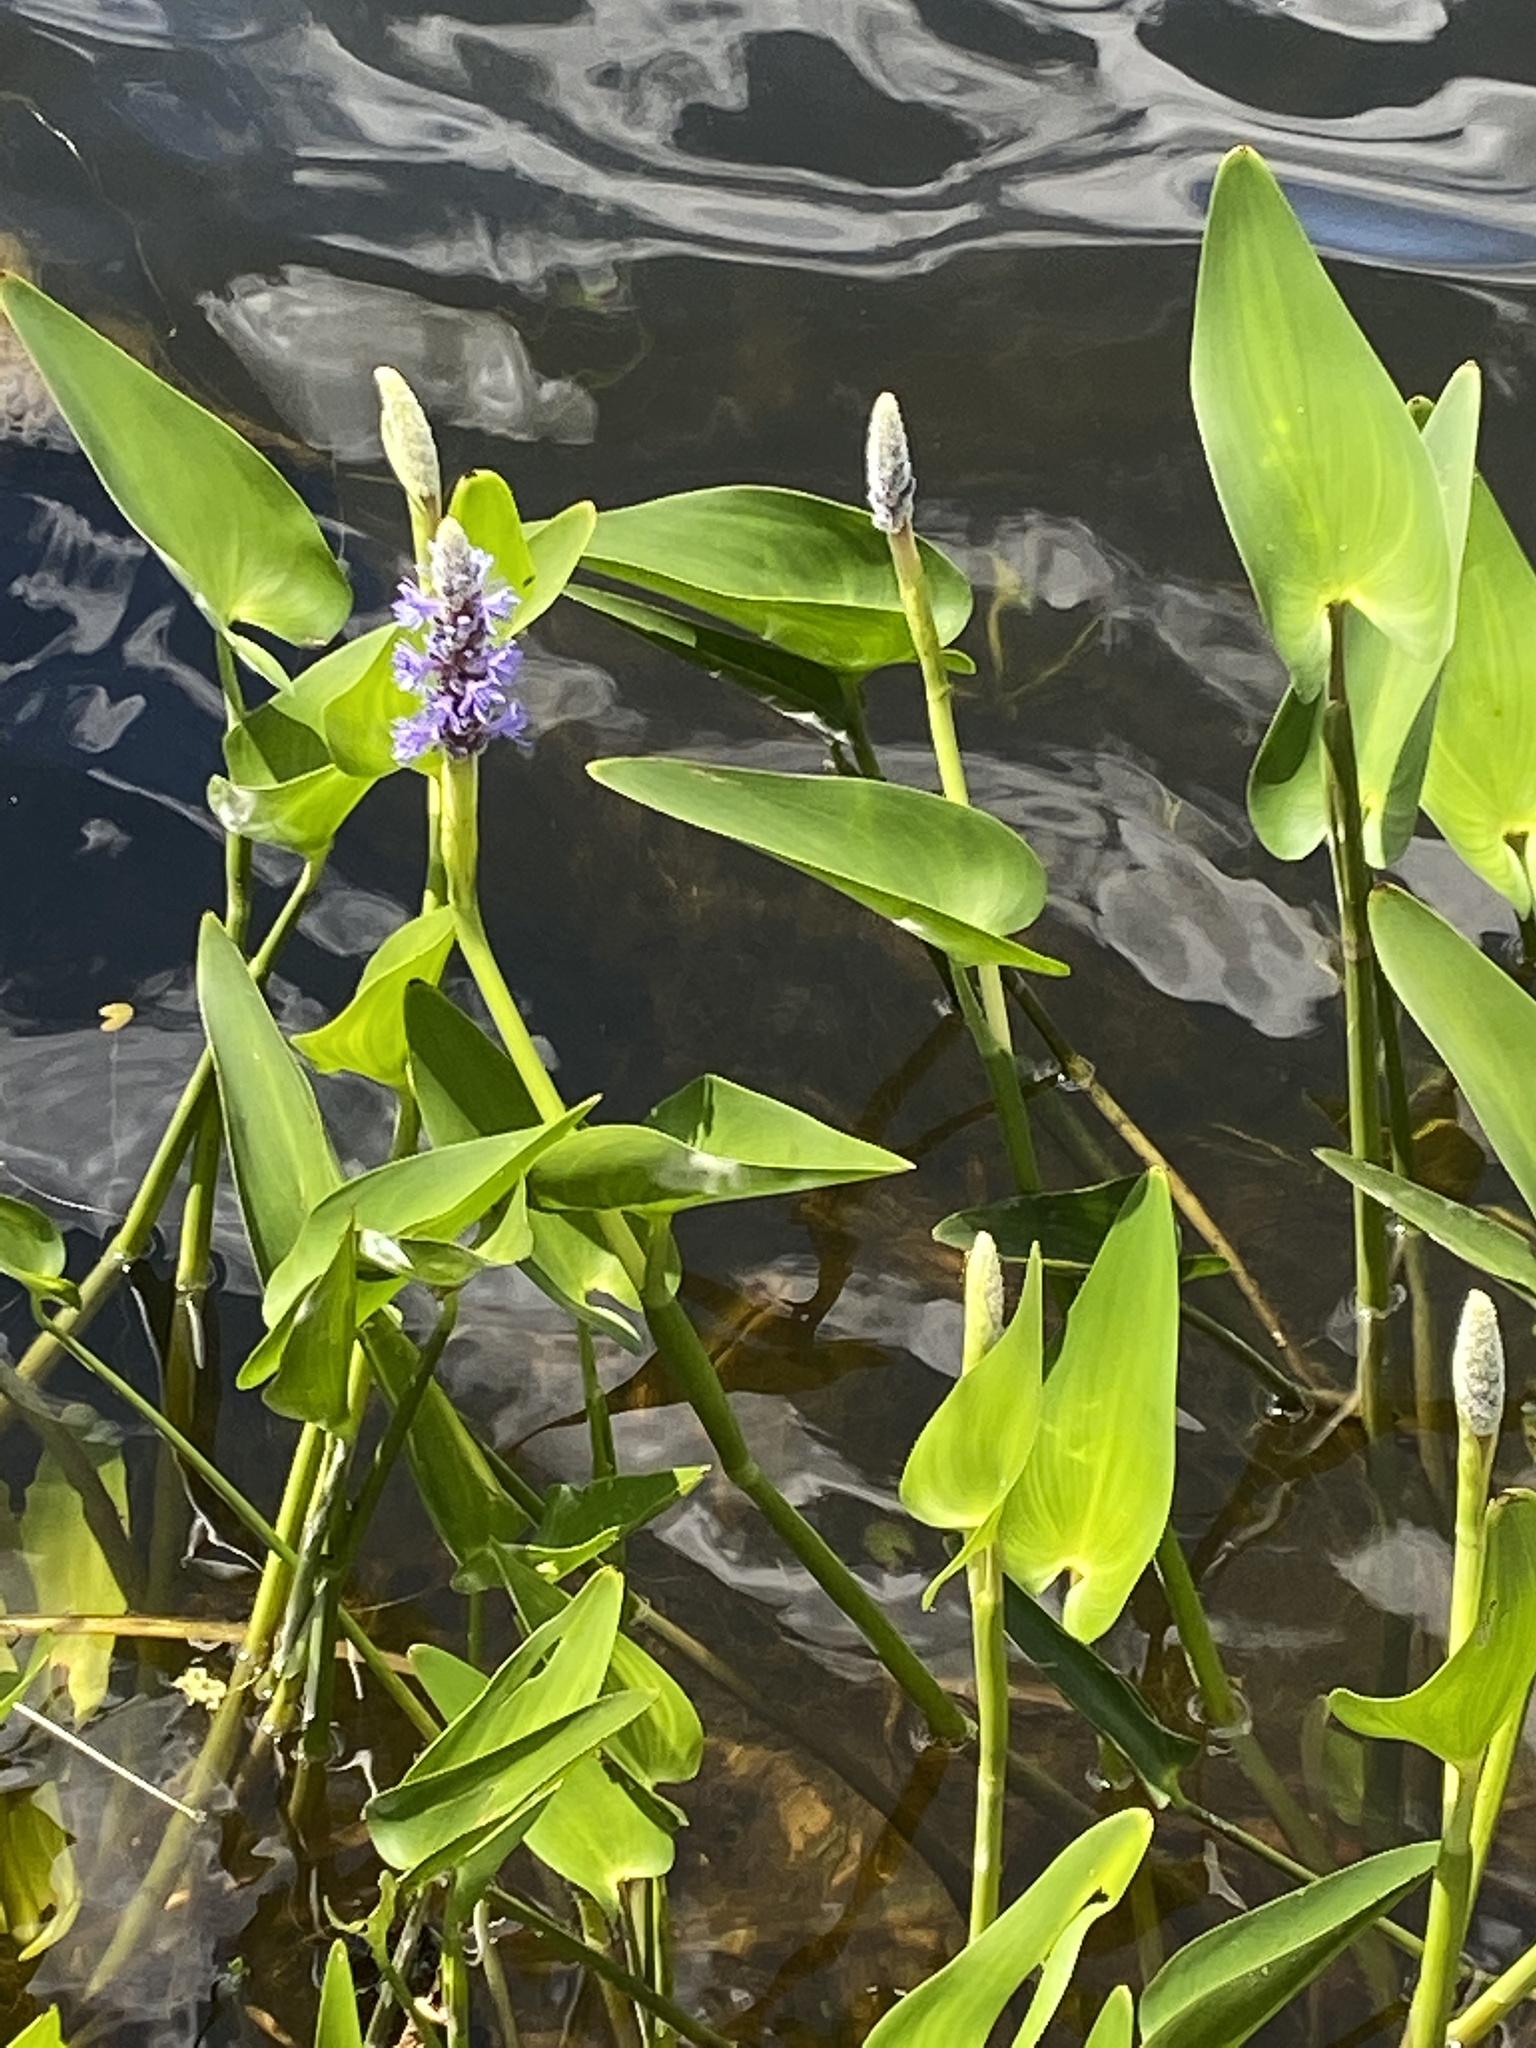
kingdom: Plantae
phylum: Tracheophyta
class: Liliopsida
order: Commelinales
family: Pontederiaceae
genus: Pontederia
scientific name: Pontederia cordata
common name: Pickerelweed
